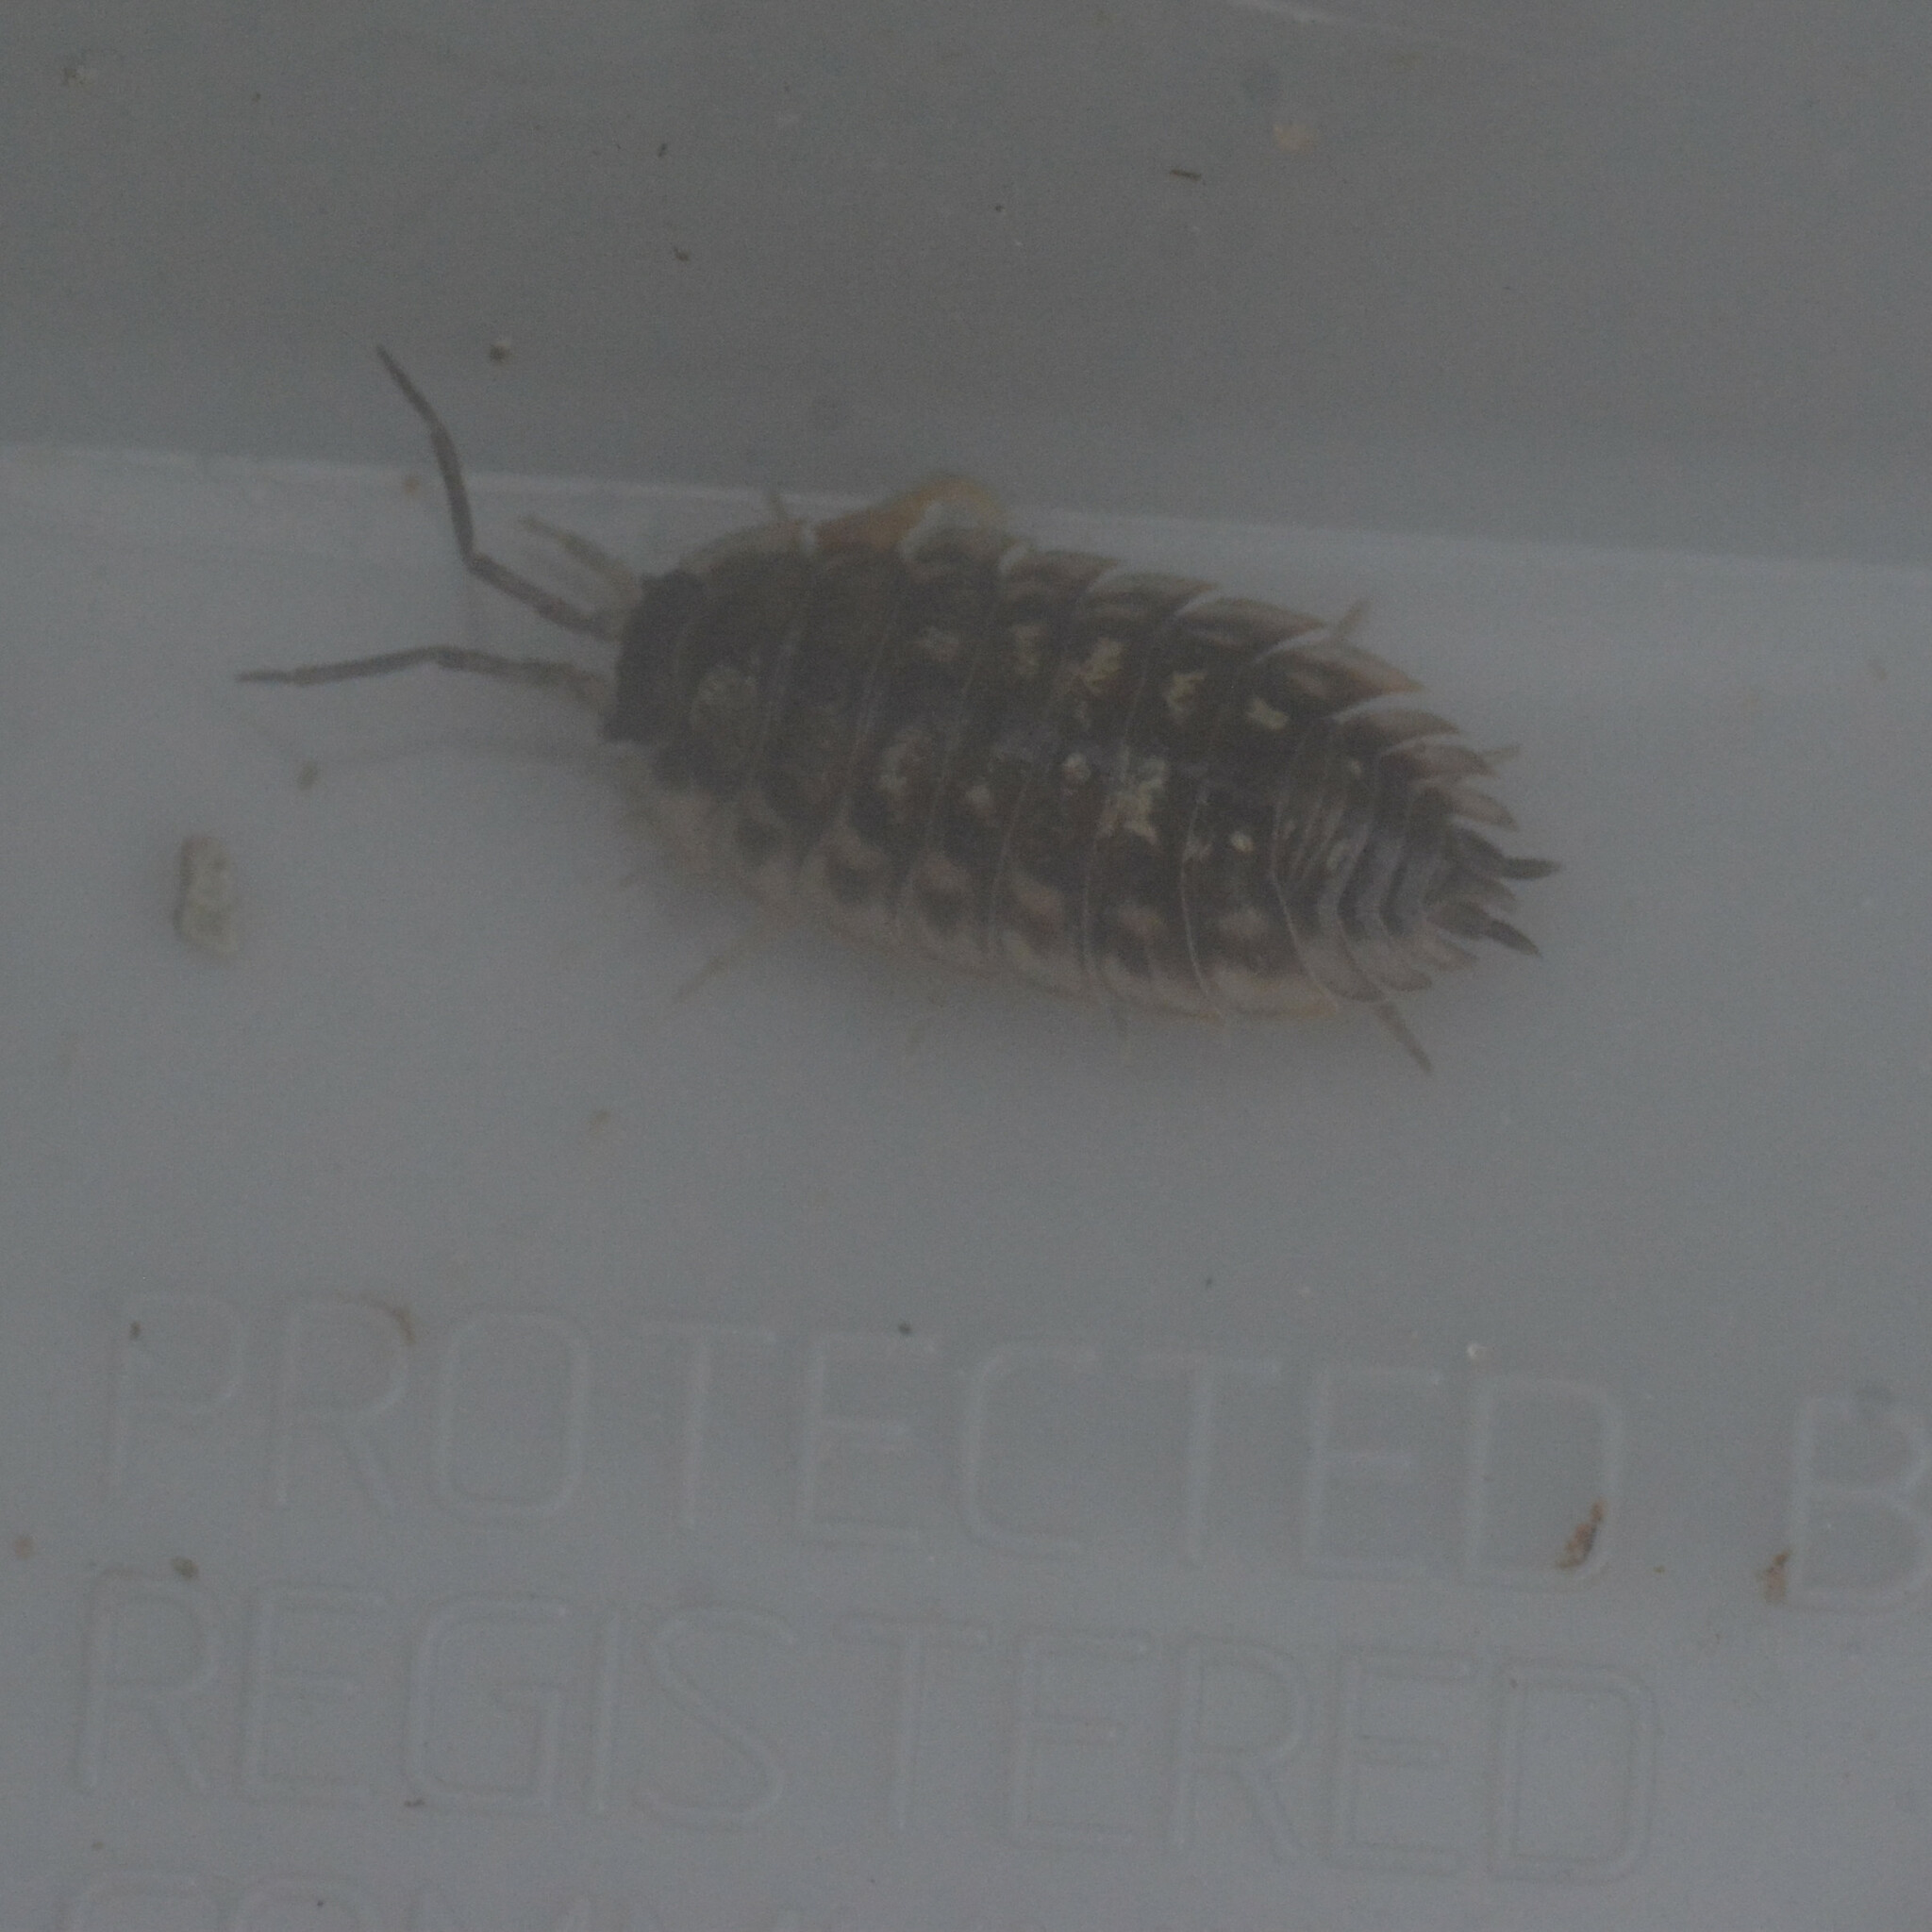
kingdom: Animalia
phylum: Arthropoda
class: Malacostraca
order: Isopoda
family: Oniscidae
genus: Oniscus
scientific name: Oniscus asellus
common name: Common shiny woodlouse
